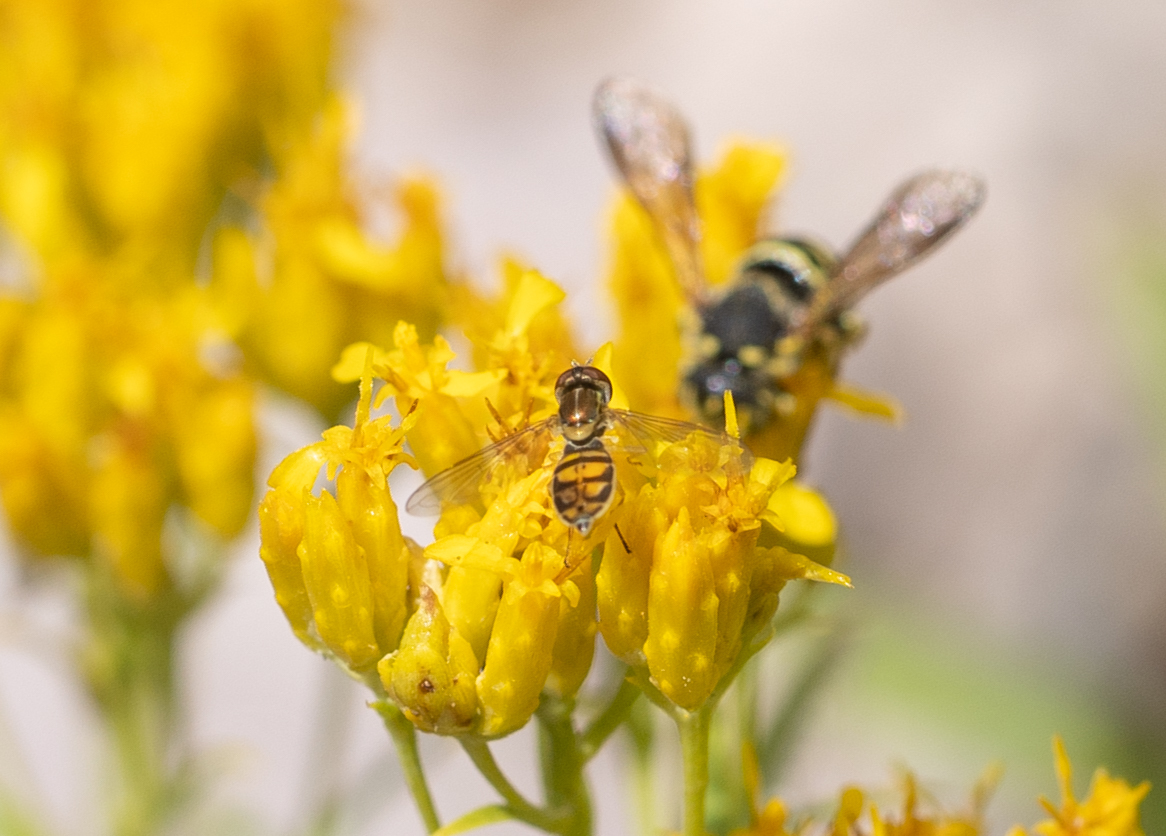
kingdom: Animalia
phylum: Arthropoda
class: Insecta
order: Diptera
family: Syrphidae
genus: Toxomerus
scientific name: Toxomerus marginatus
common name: Syrphid fly
